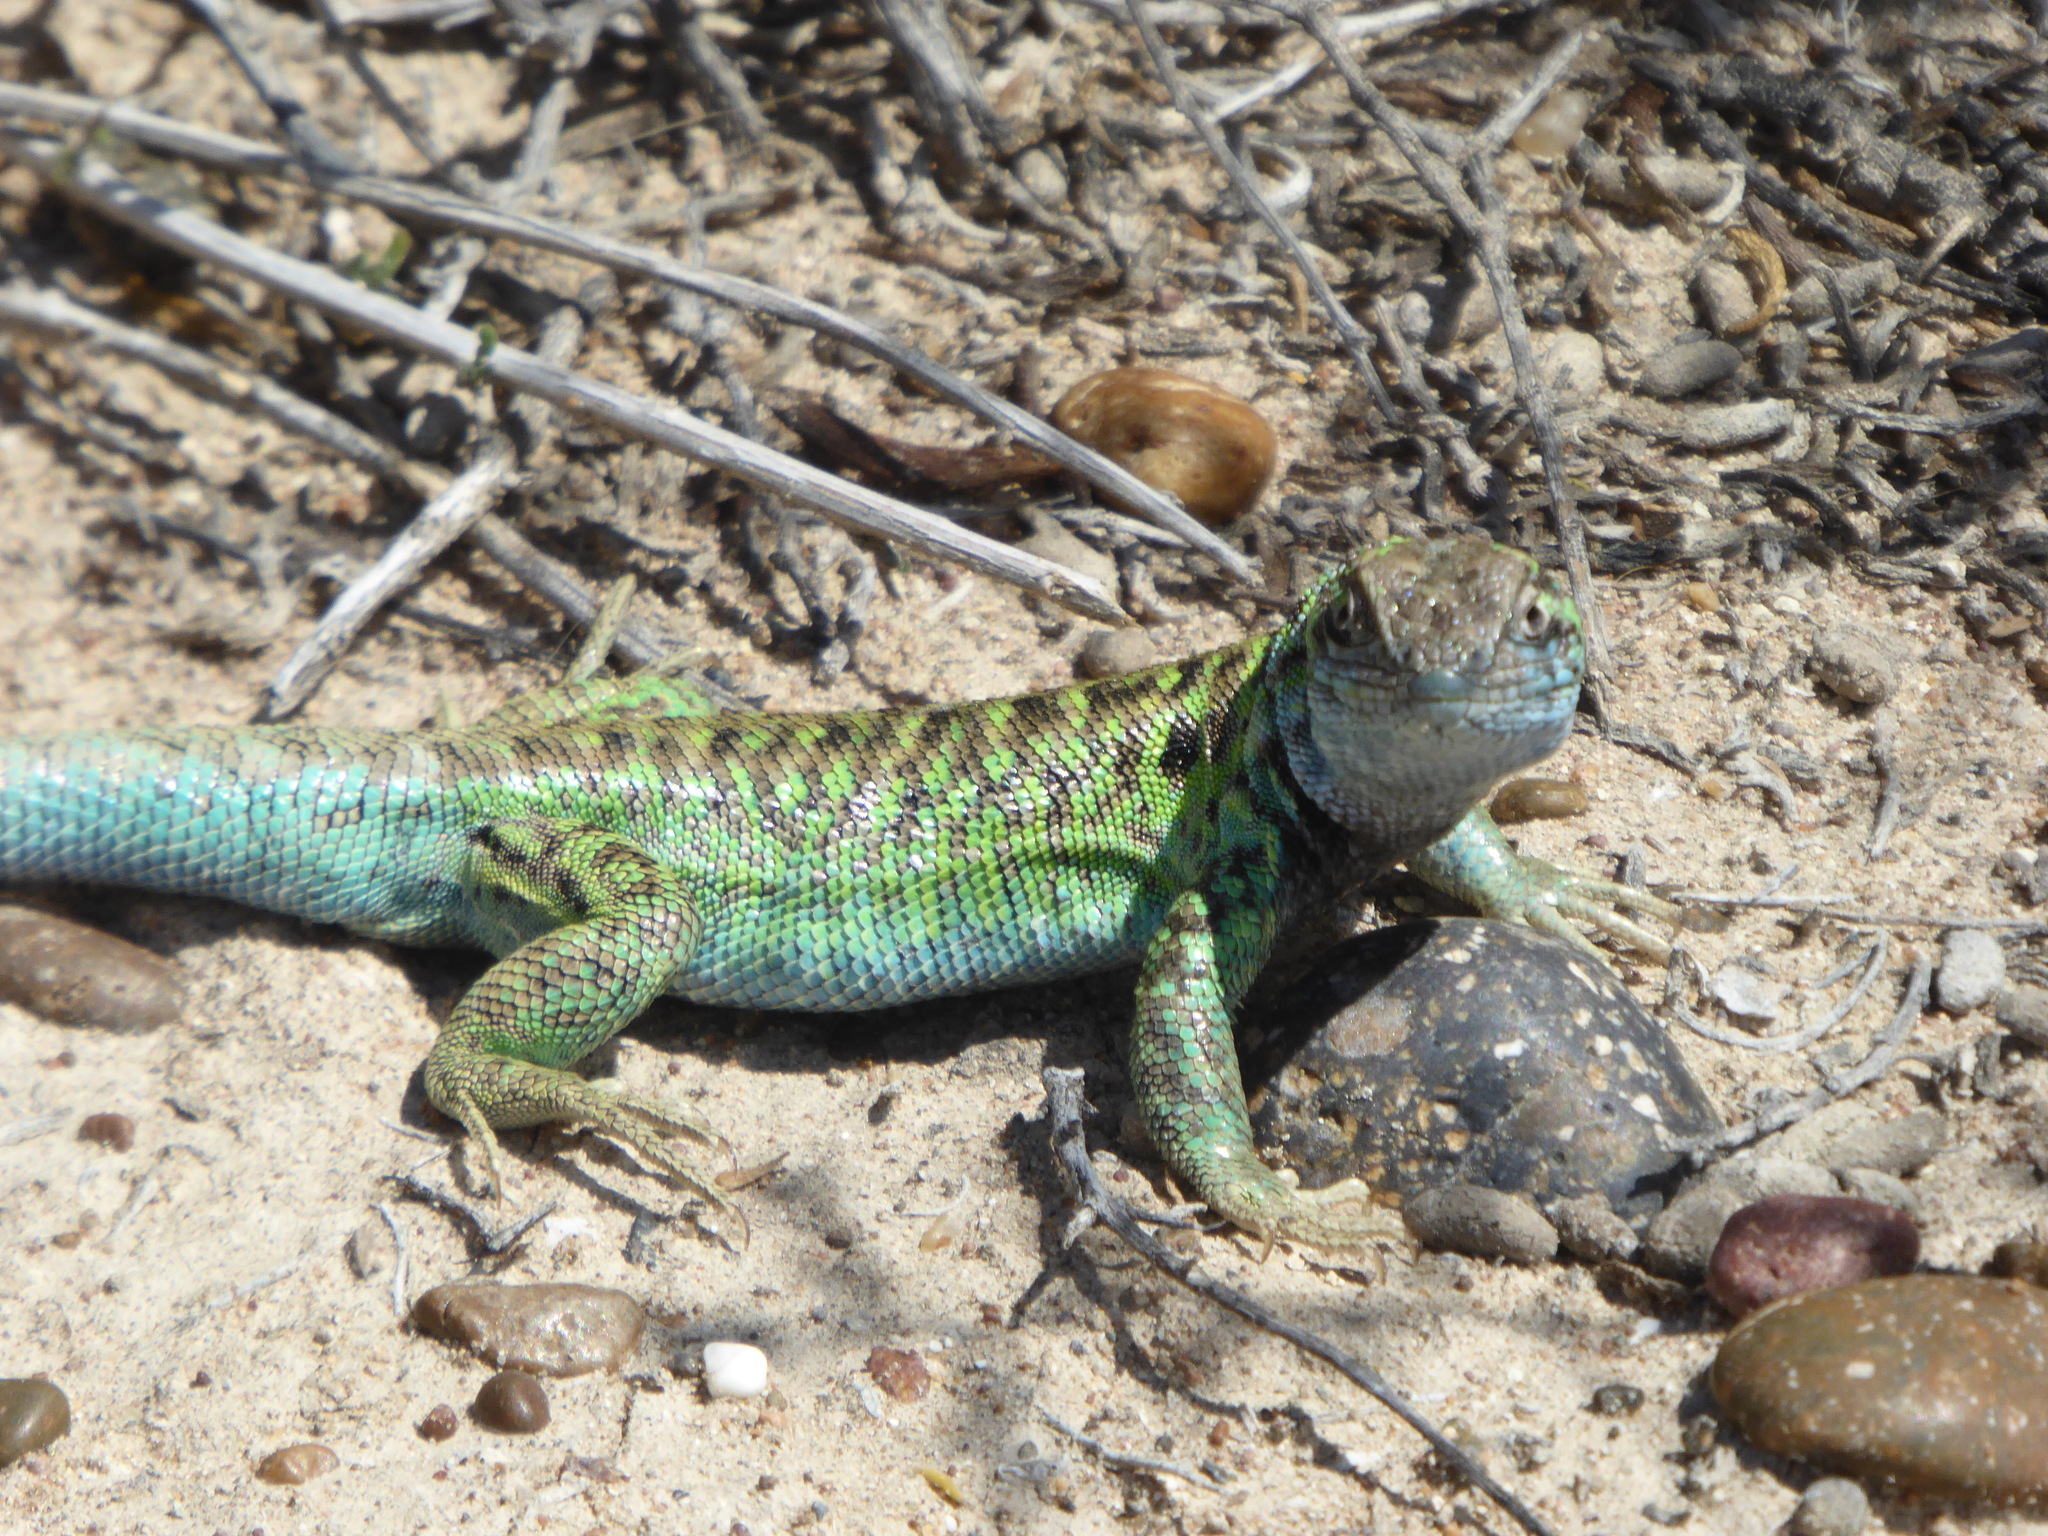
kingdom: Animalia
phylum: Chordata
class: Squamata
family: Liolaemidae
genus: Liolaemus
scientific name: Liolaemus melanops
